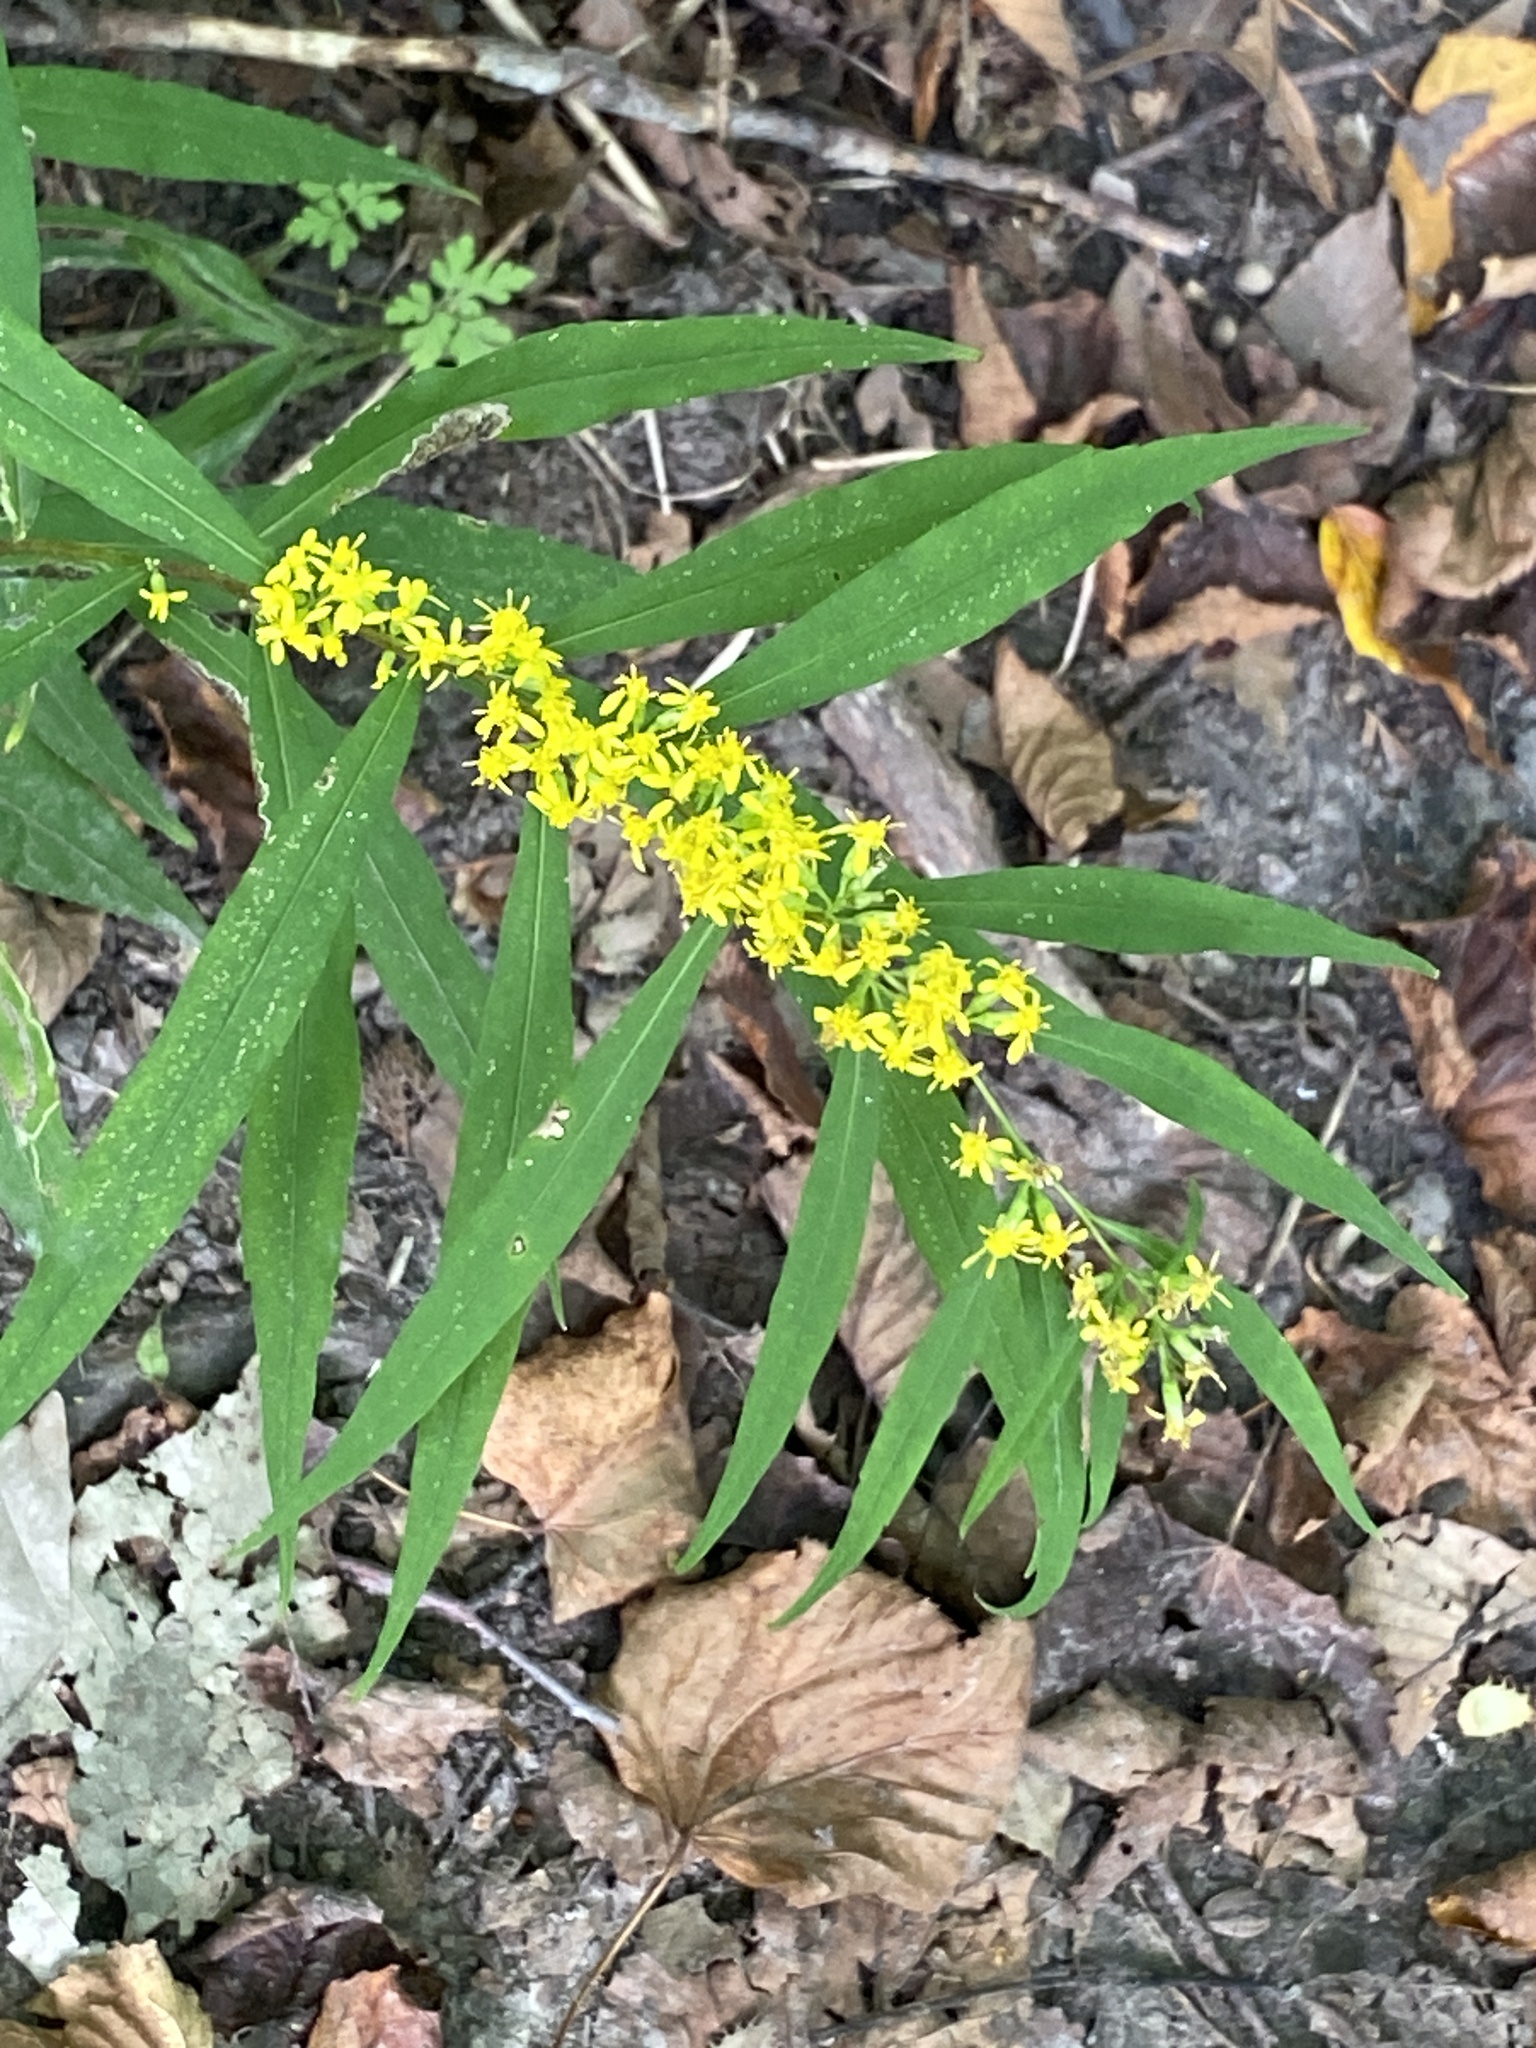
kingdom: Plantae
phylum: Tracheophyta
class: Magnoliopsida
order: Asterales
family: Asteraceae
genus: Solidago
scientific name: Solidago caesia
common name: Woodland goldenrod
